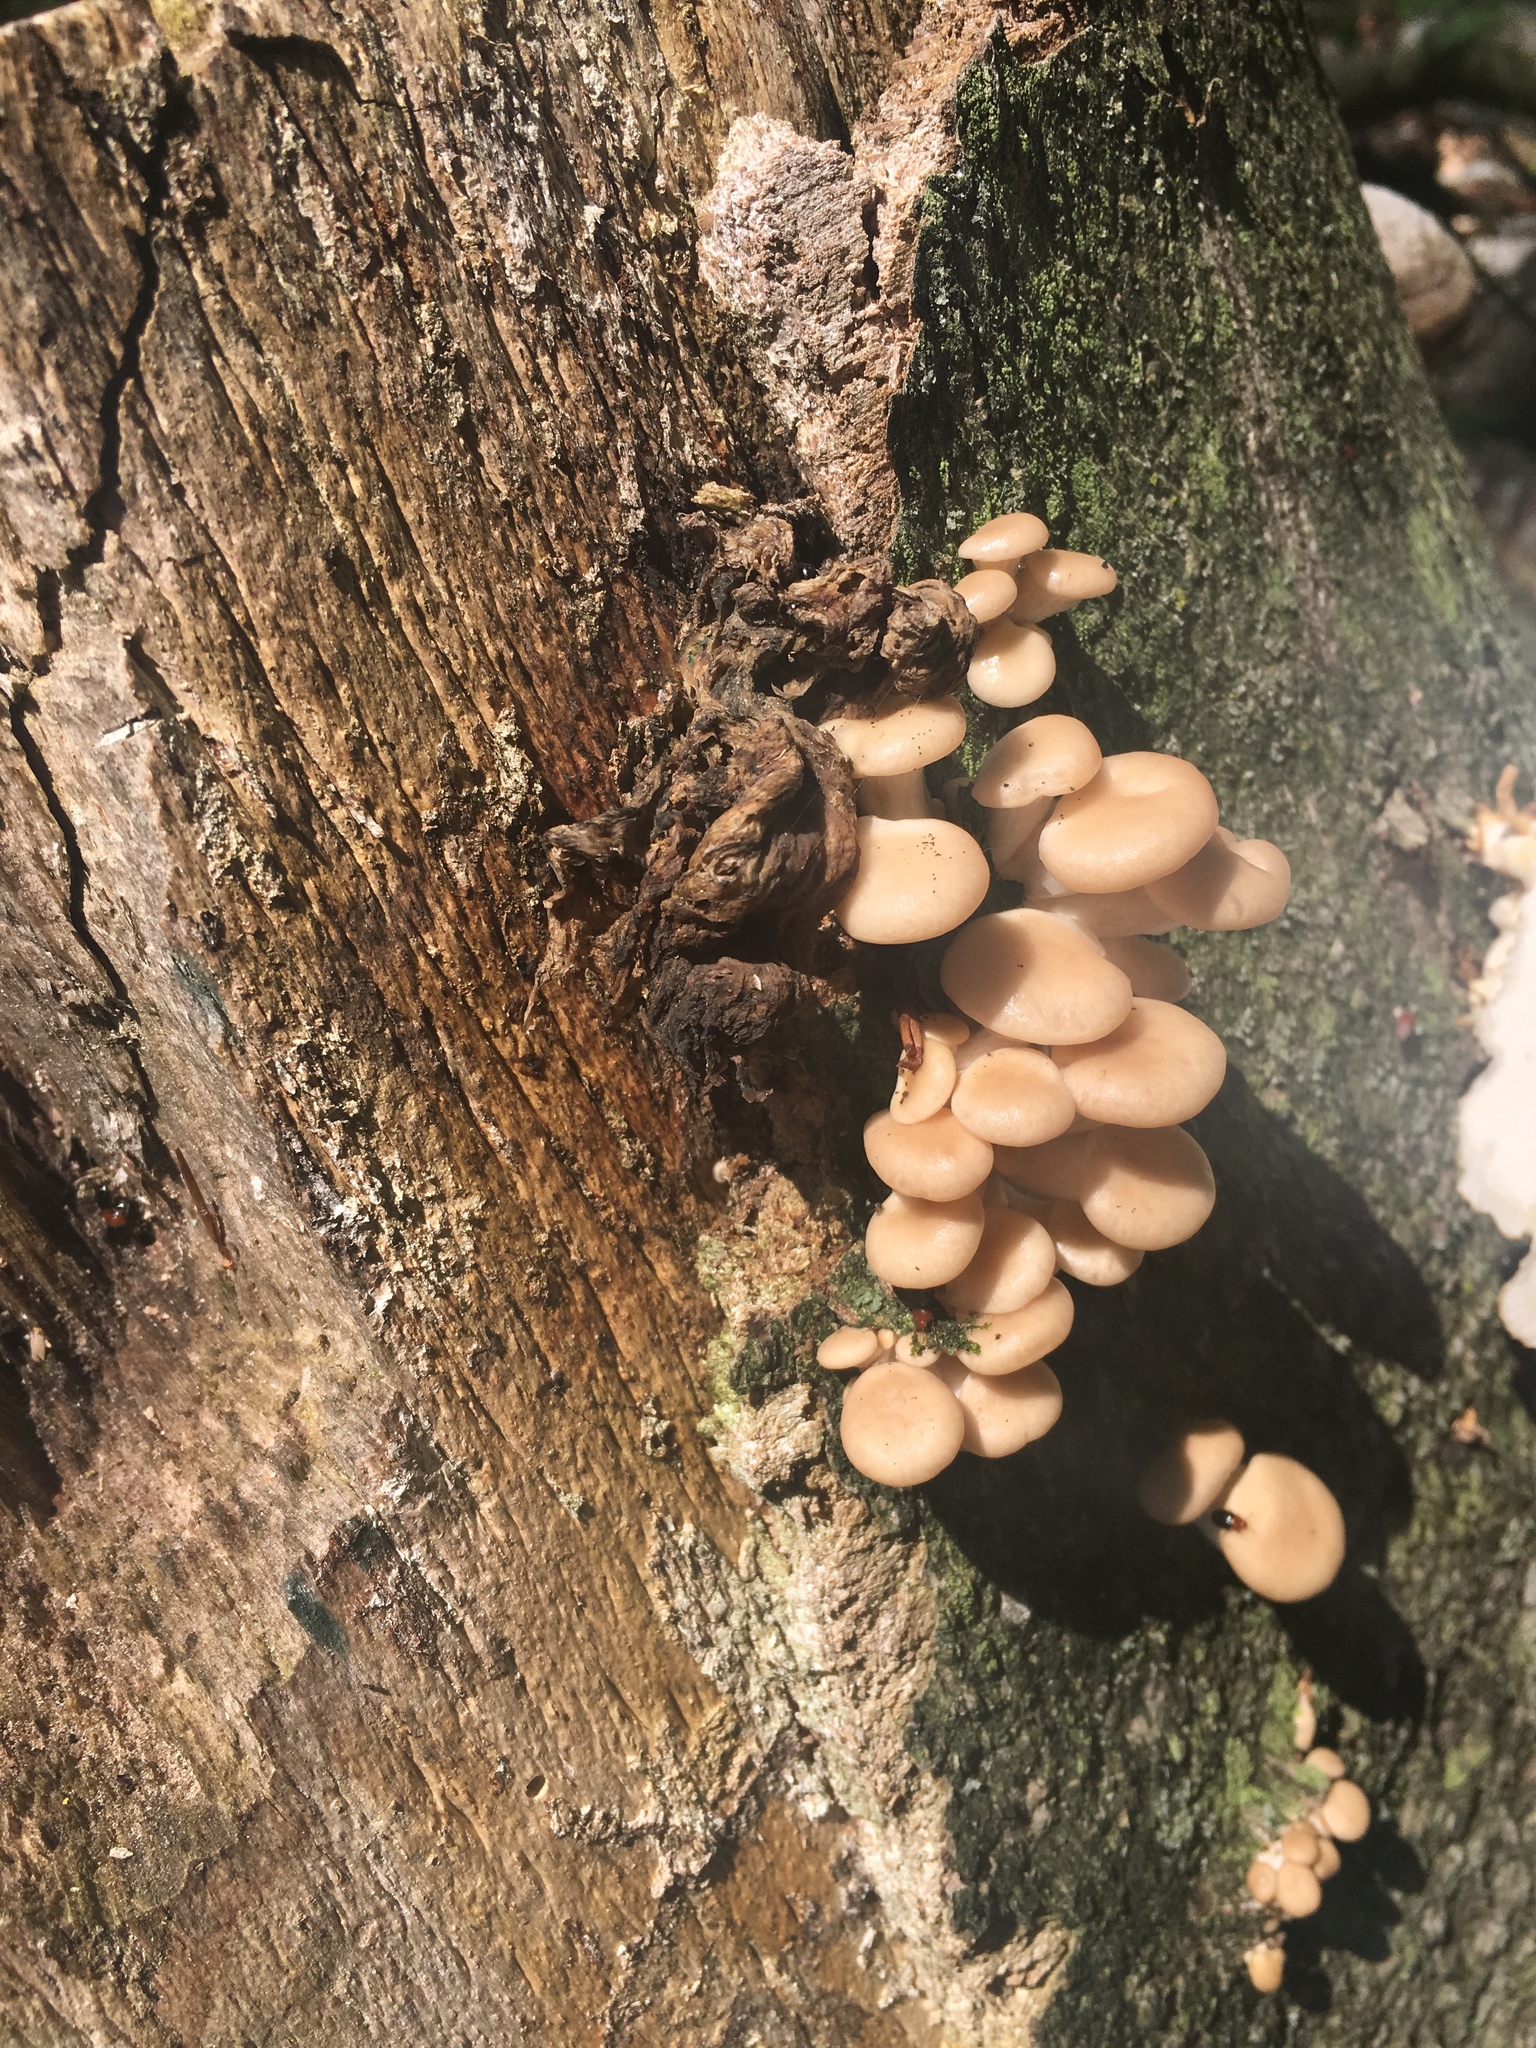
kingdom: Fungi
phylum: Basidiomycota
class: Agaricomycetes
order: Agaricales
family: Pleurotaceae
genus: Pleurotus
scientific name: Pleurotus ostreatus
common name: Oyster mushroom
